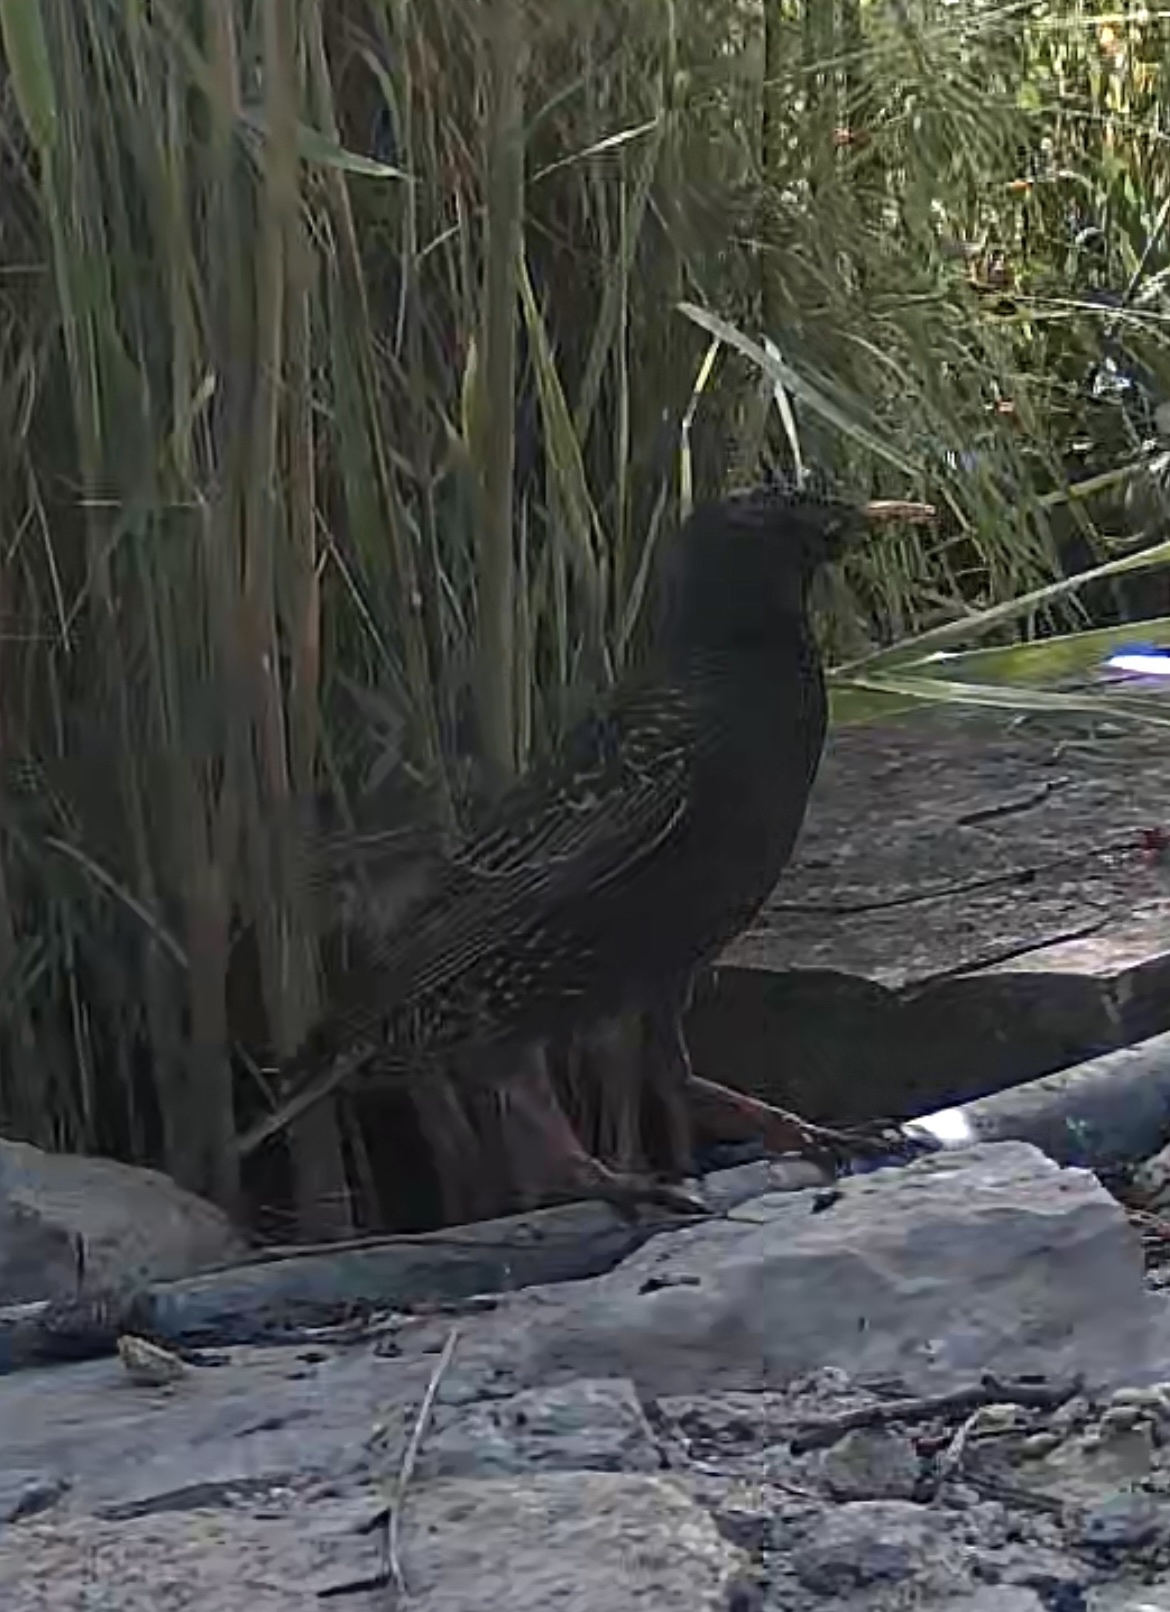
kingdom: Animalia
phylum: Chordata
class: Aves
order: Passeriformes
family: Sturnidae
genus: Sturnus
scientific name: Sturnus vulgaris
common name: Common starling
